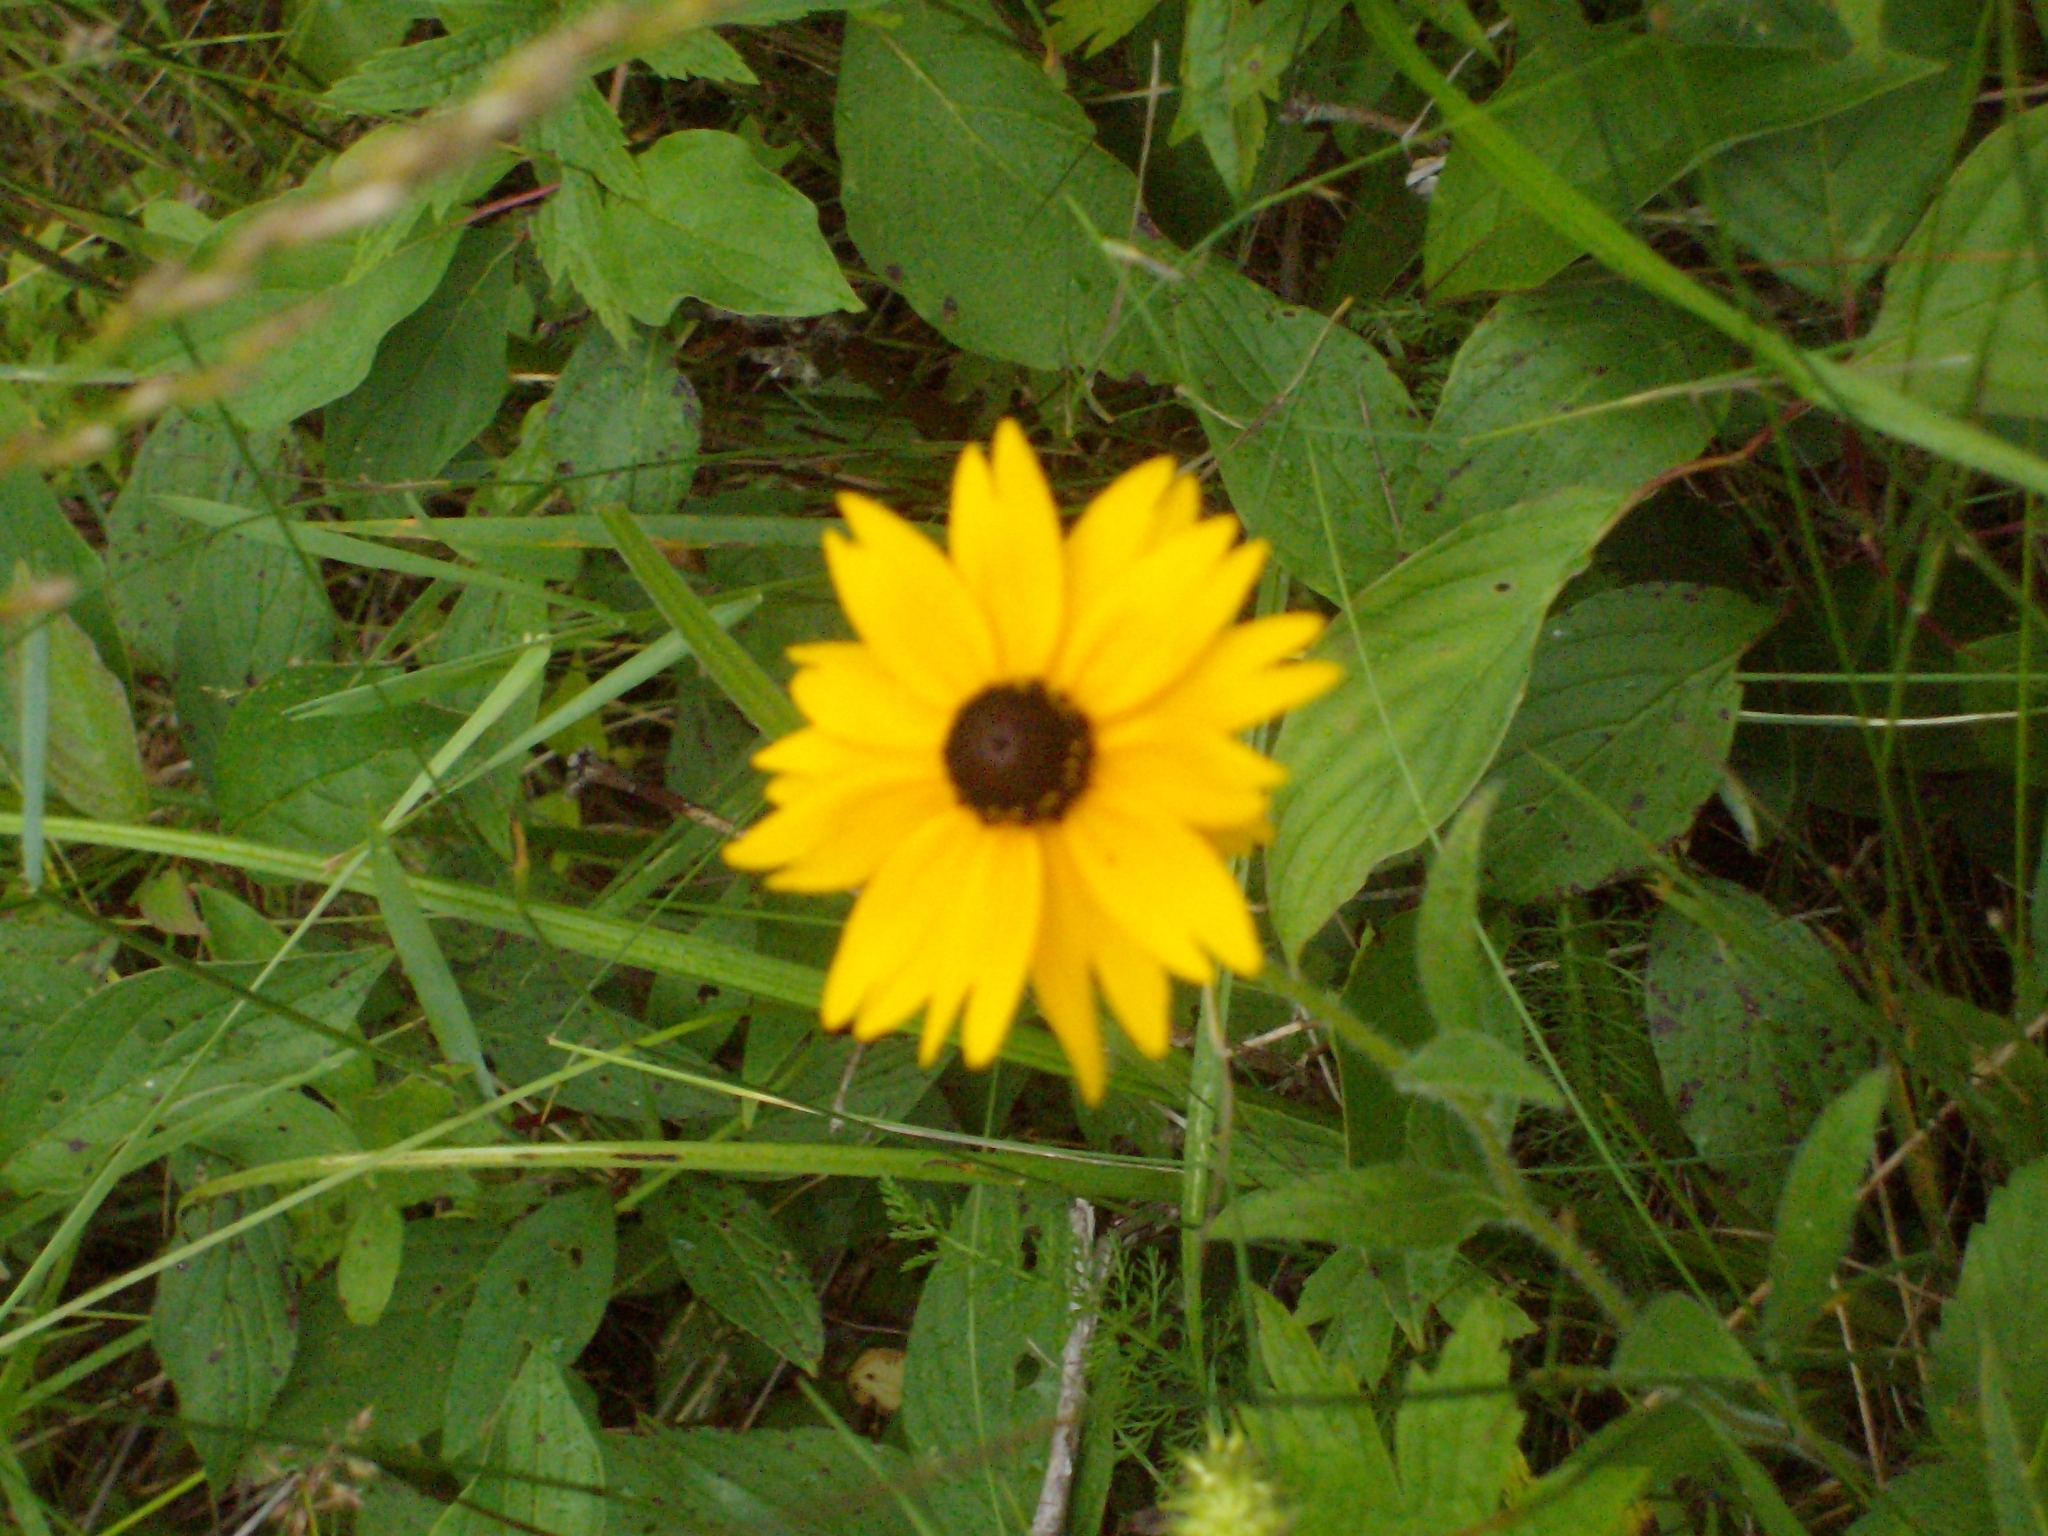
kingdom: Plantae
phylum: Tracheophyta
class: Magnoliopsida
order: Asterales
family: Asteraceae
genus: Rudbeckia
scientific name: Rudbeckia hirta
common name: Black-eyed-susan
